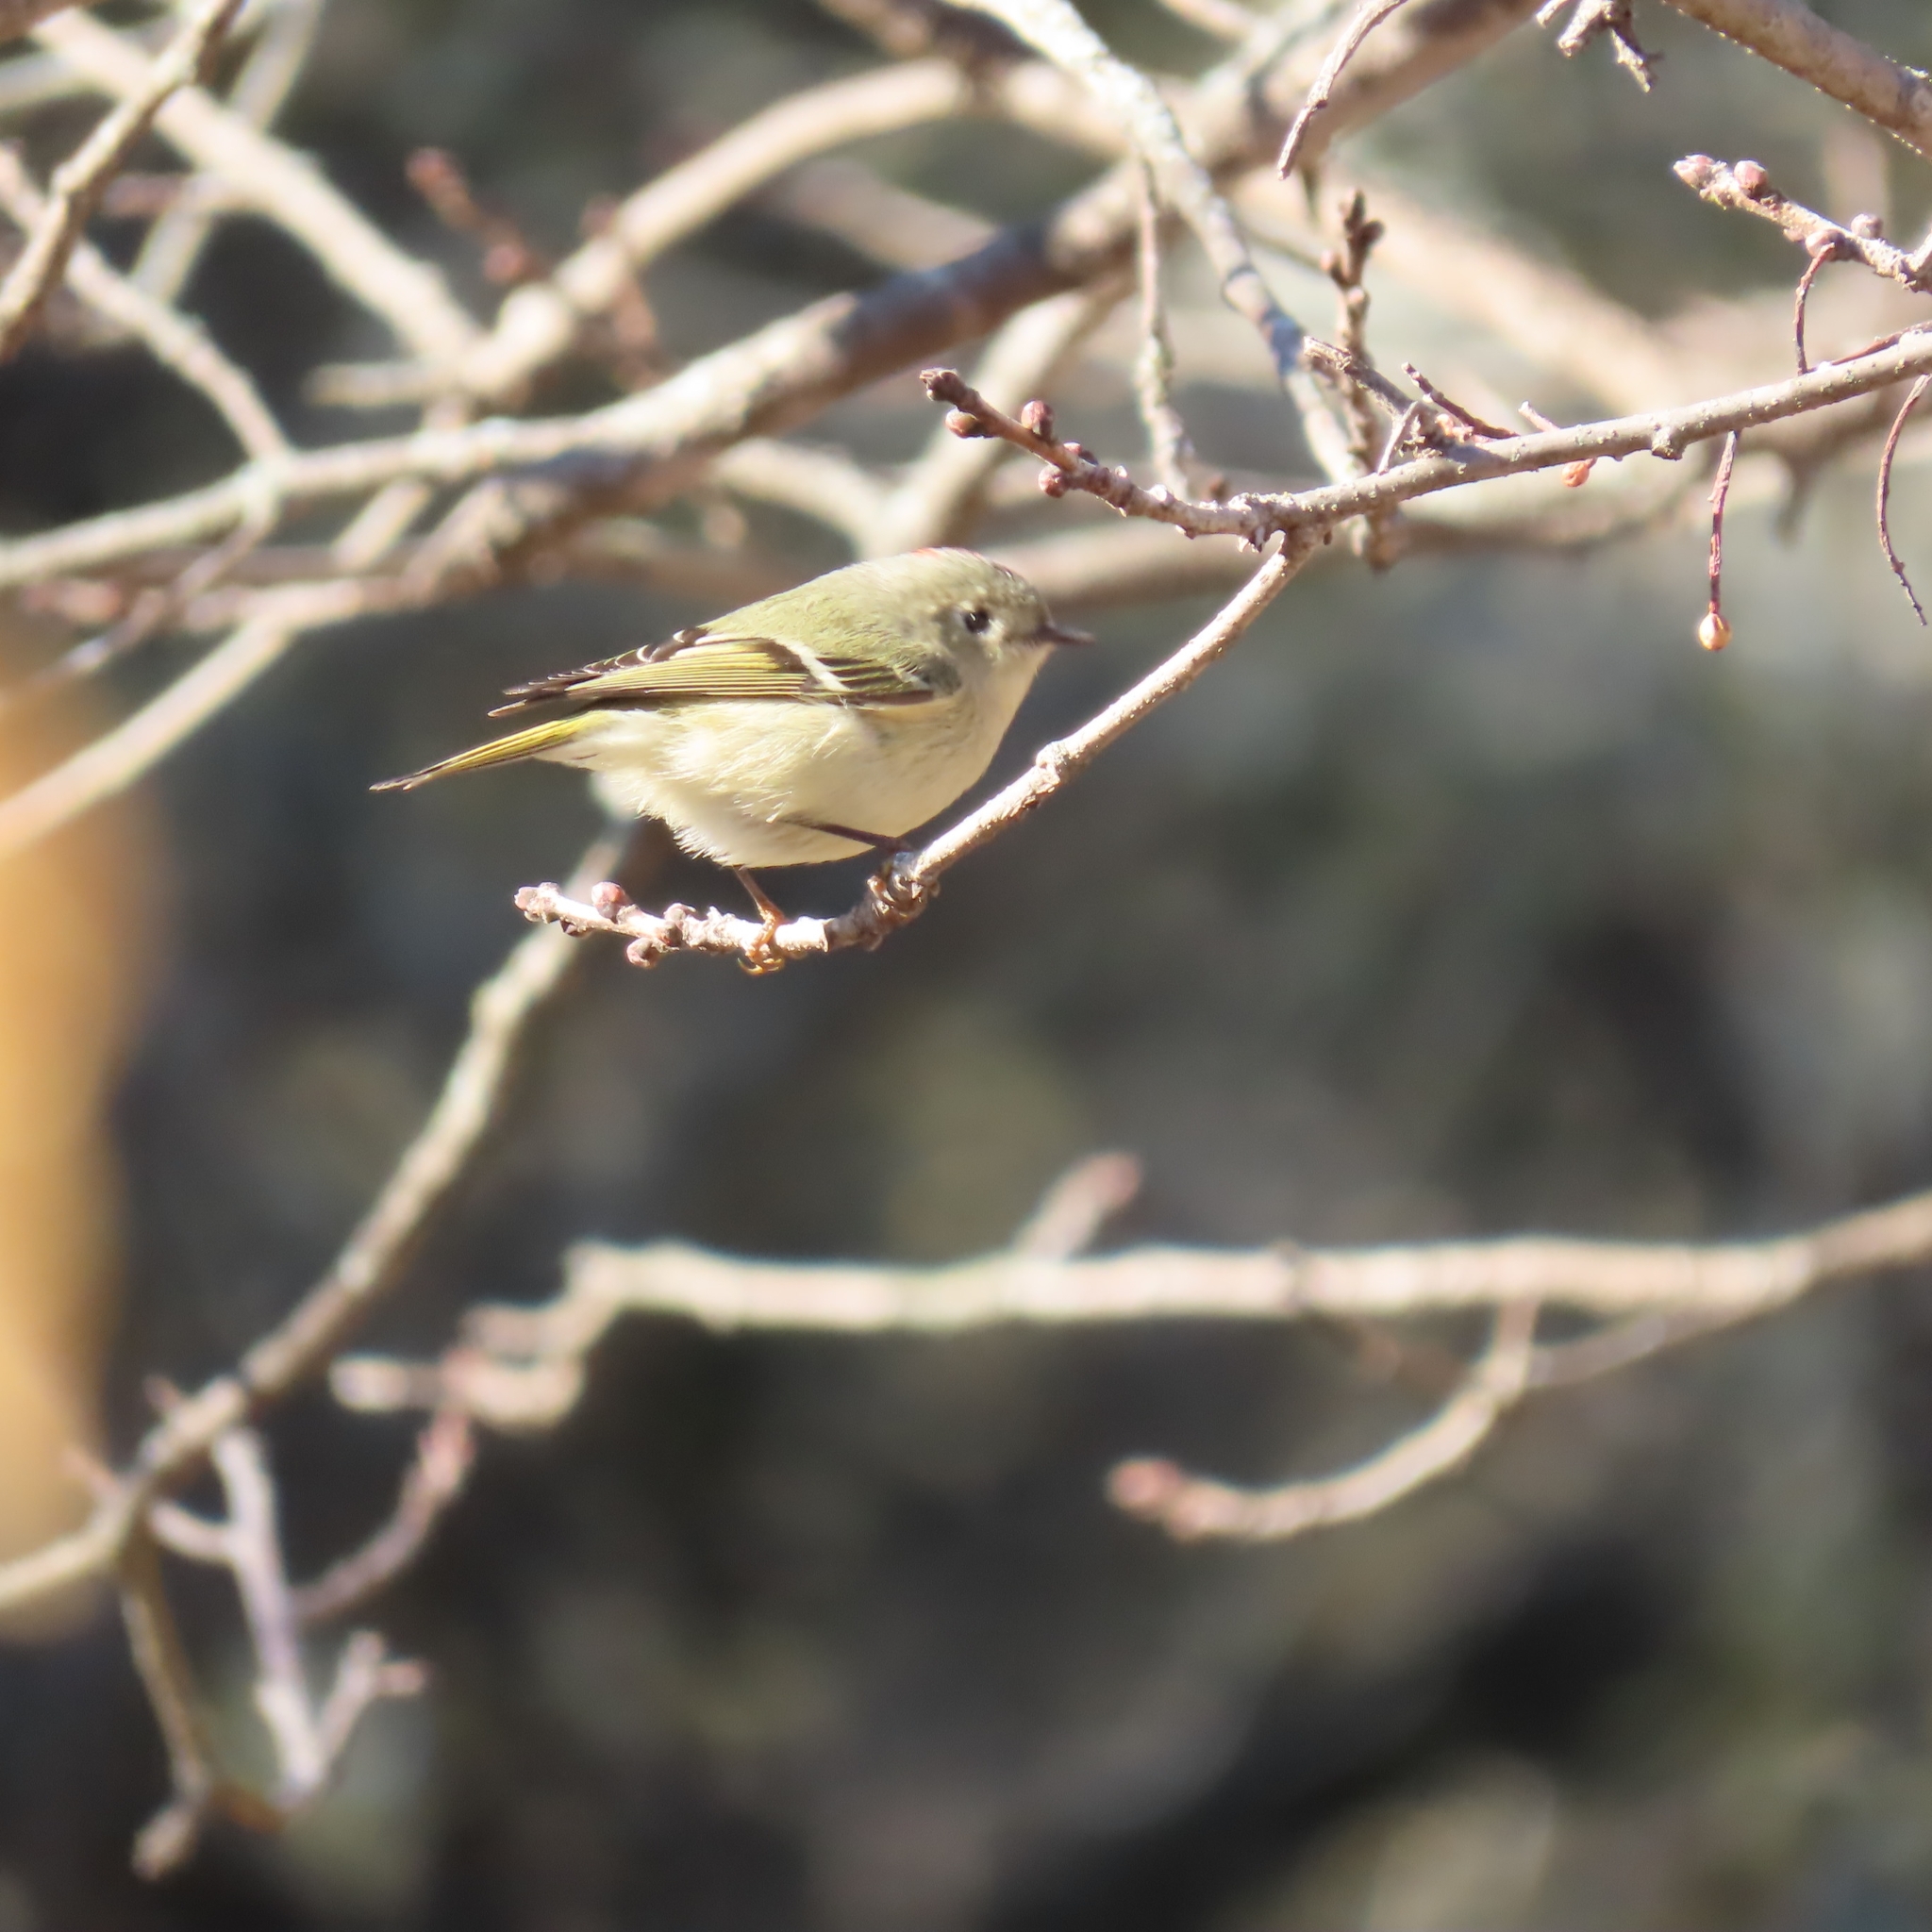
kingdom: Animalia
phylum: Chordata
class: Aves
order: Passeriformes
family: Regulidae
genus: Regulus
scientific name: Regulus calendula
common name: Ruby-crowned kinglet
